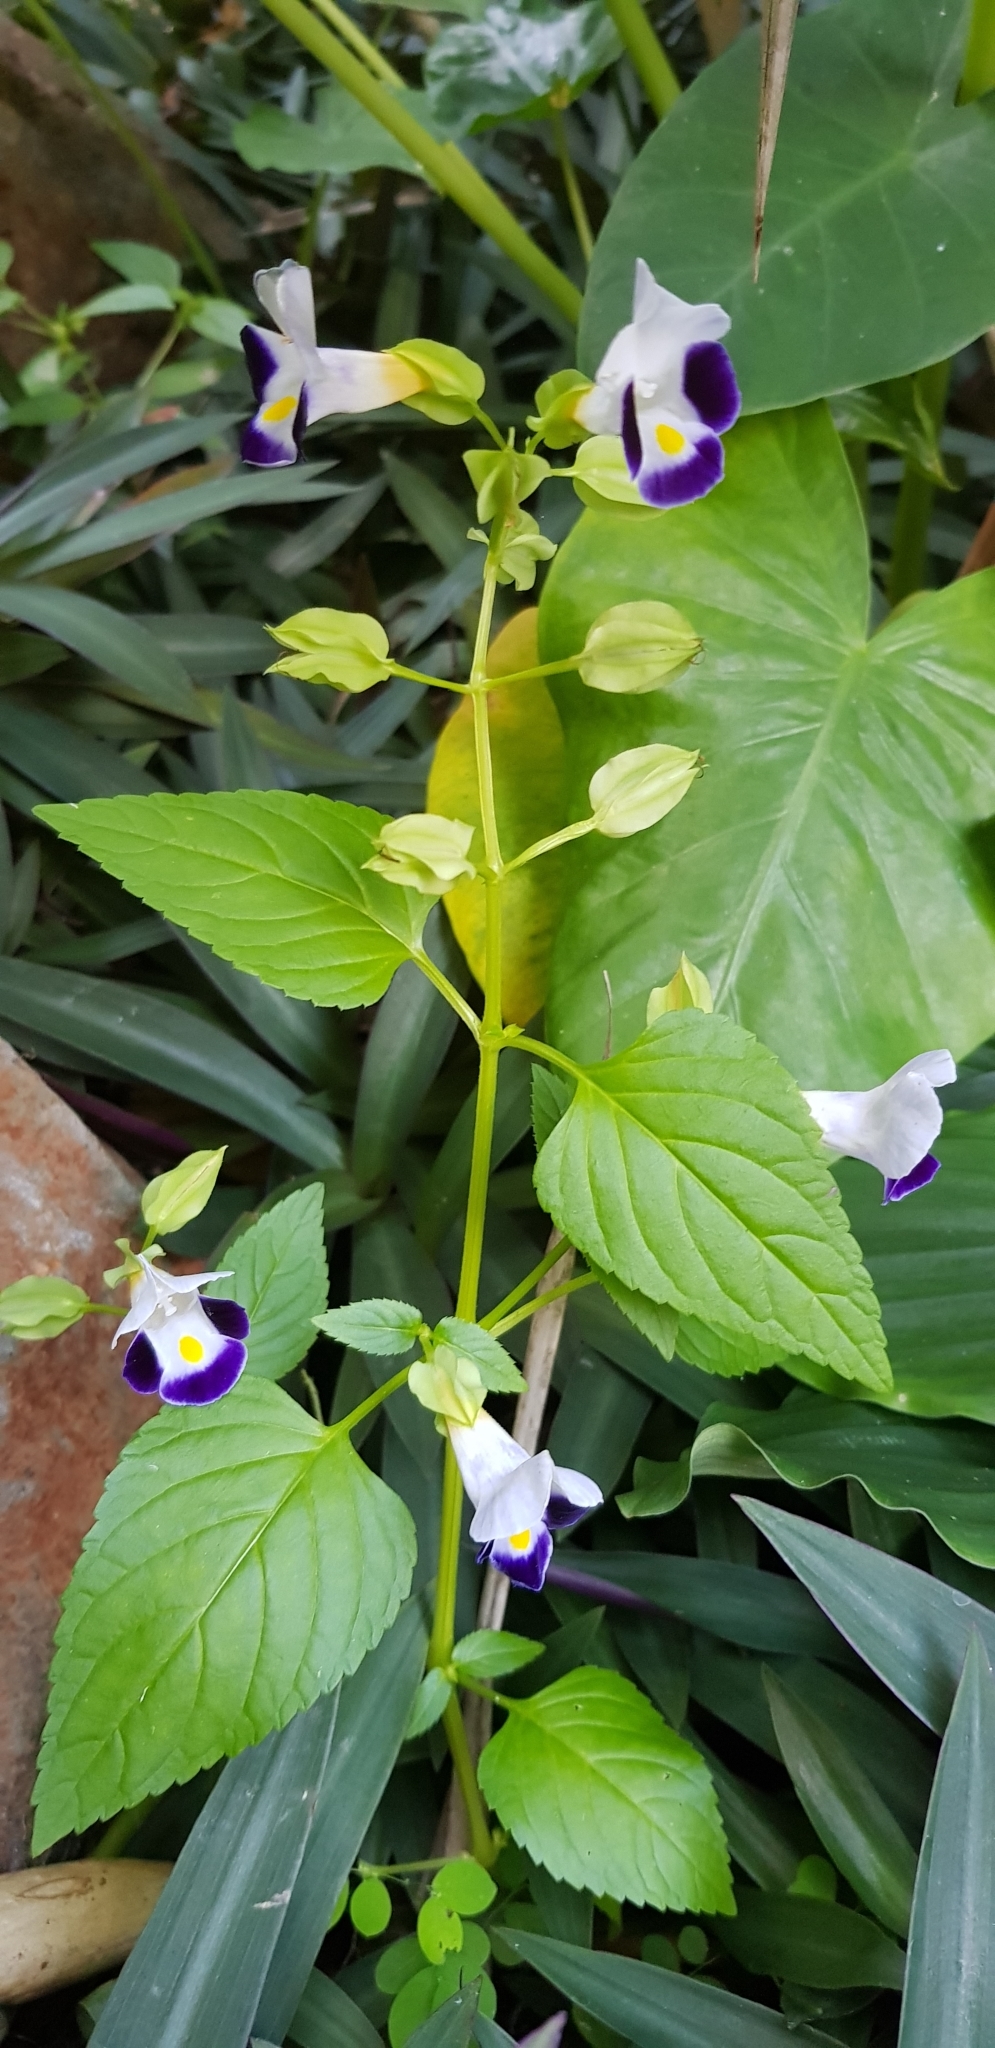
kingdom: Plantae
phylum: Tracheophyta
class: Magnoliopsida
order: Lamiales
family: Linderniaceae
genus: Torenia
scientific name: Torenia fournieri
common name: Bluewings
